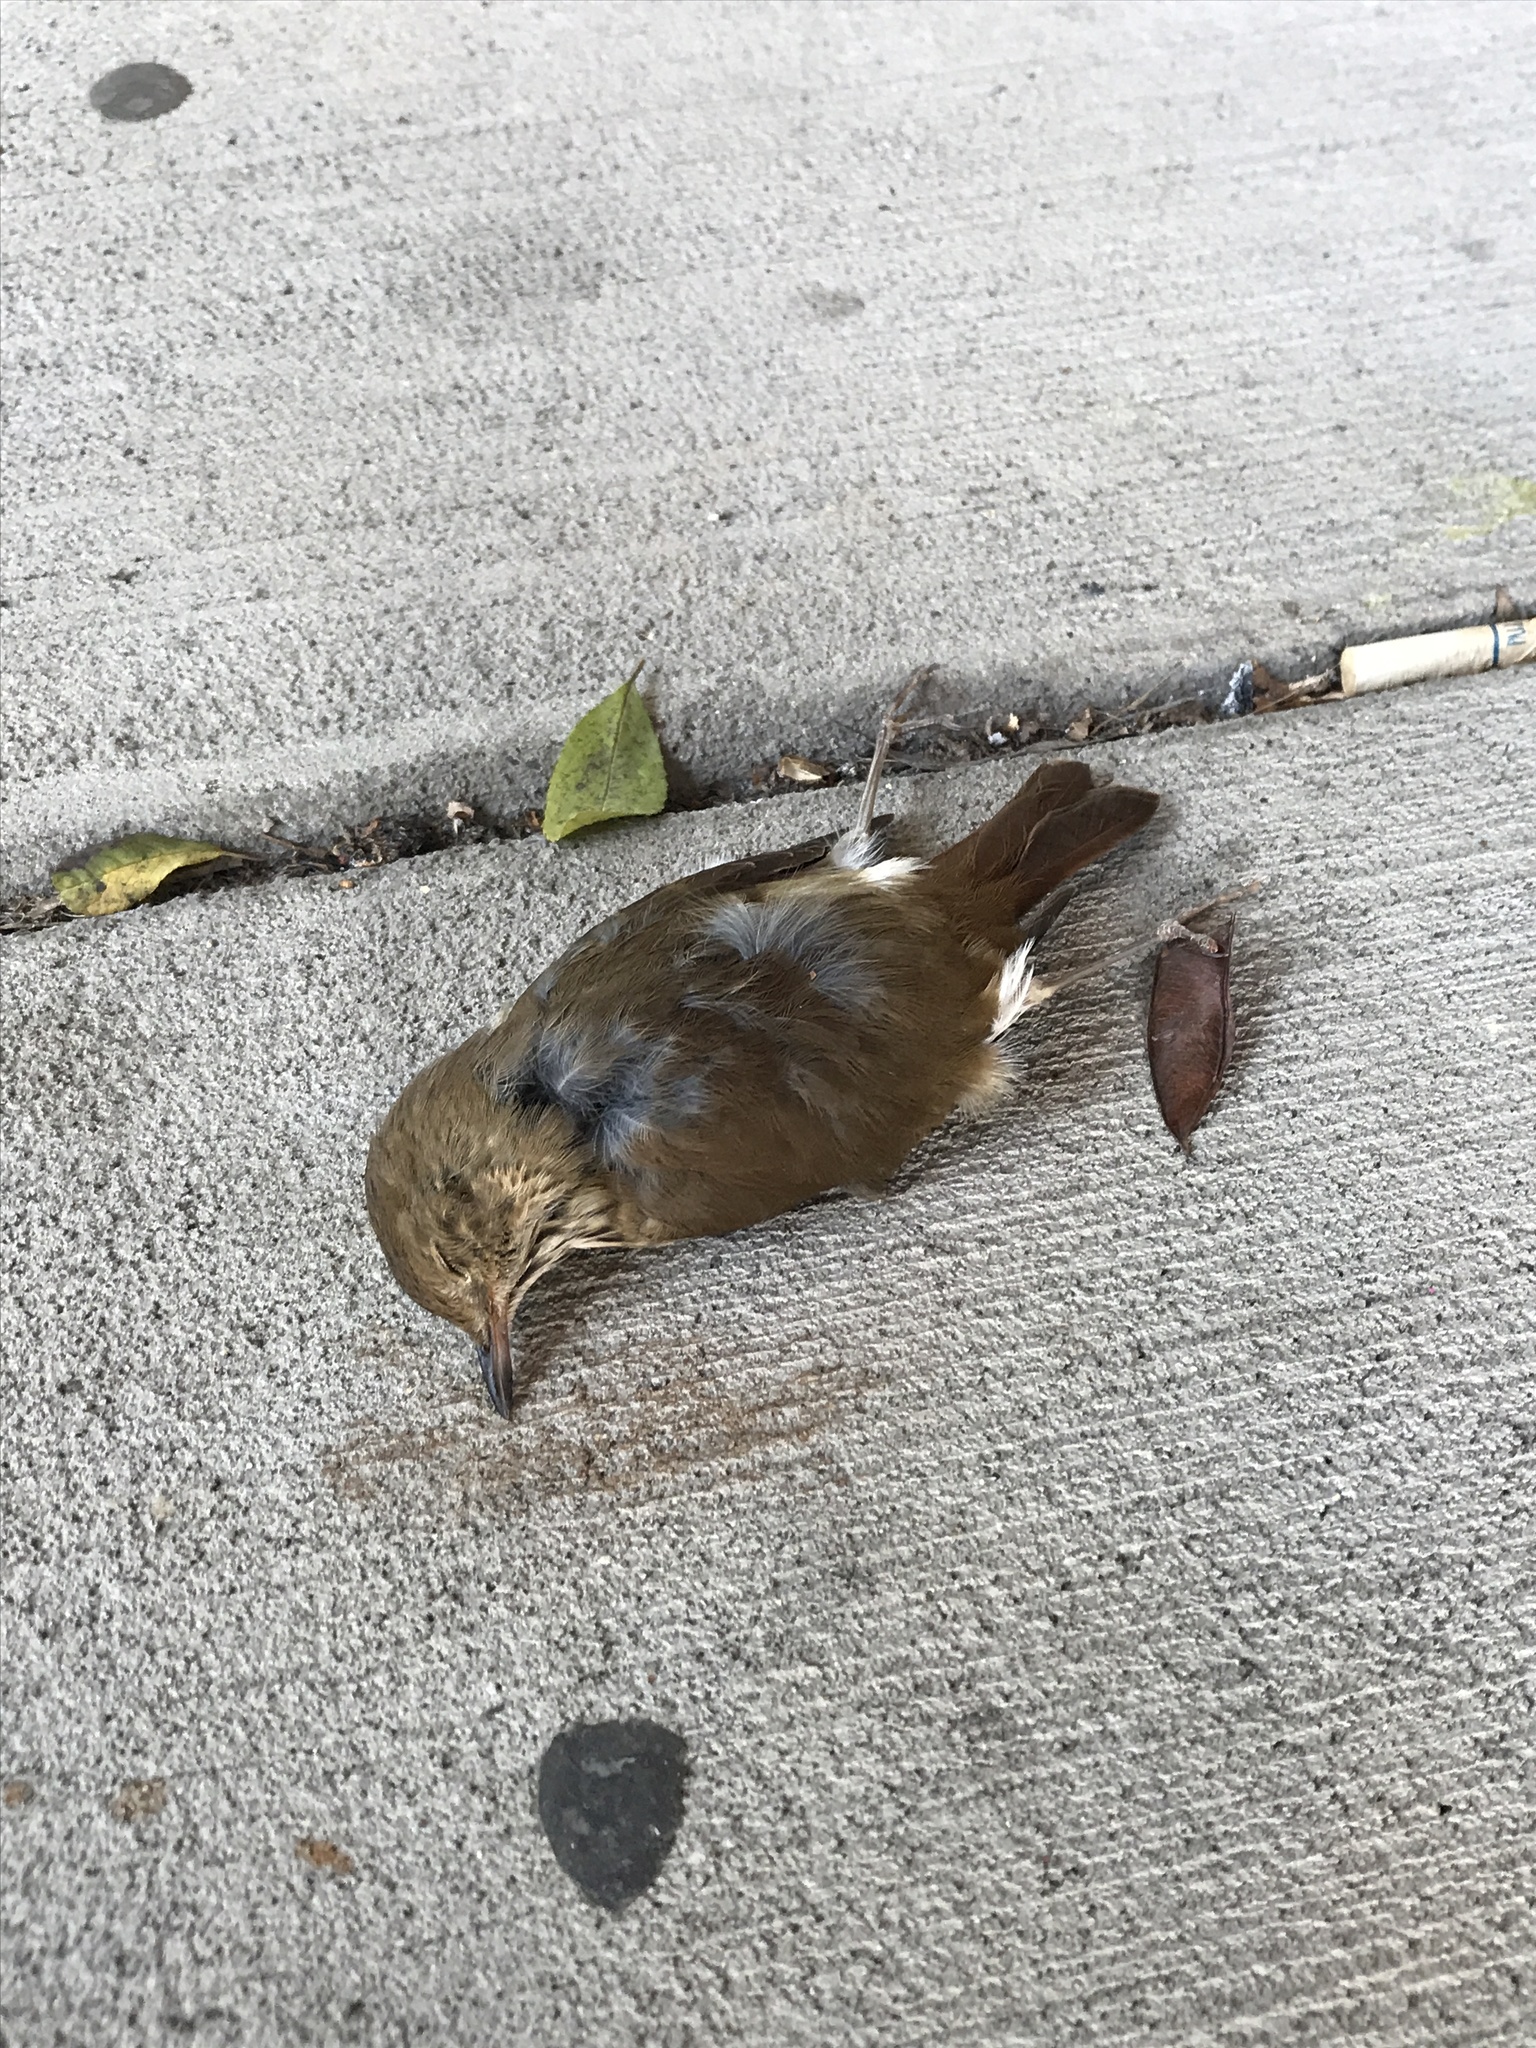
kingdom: Animalia
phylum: Chordata
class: Aves
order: Passeriformes
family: Turdidae
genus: Catharus
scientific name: Catharus guttatus
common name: Hermit thrush
